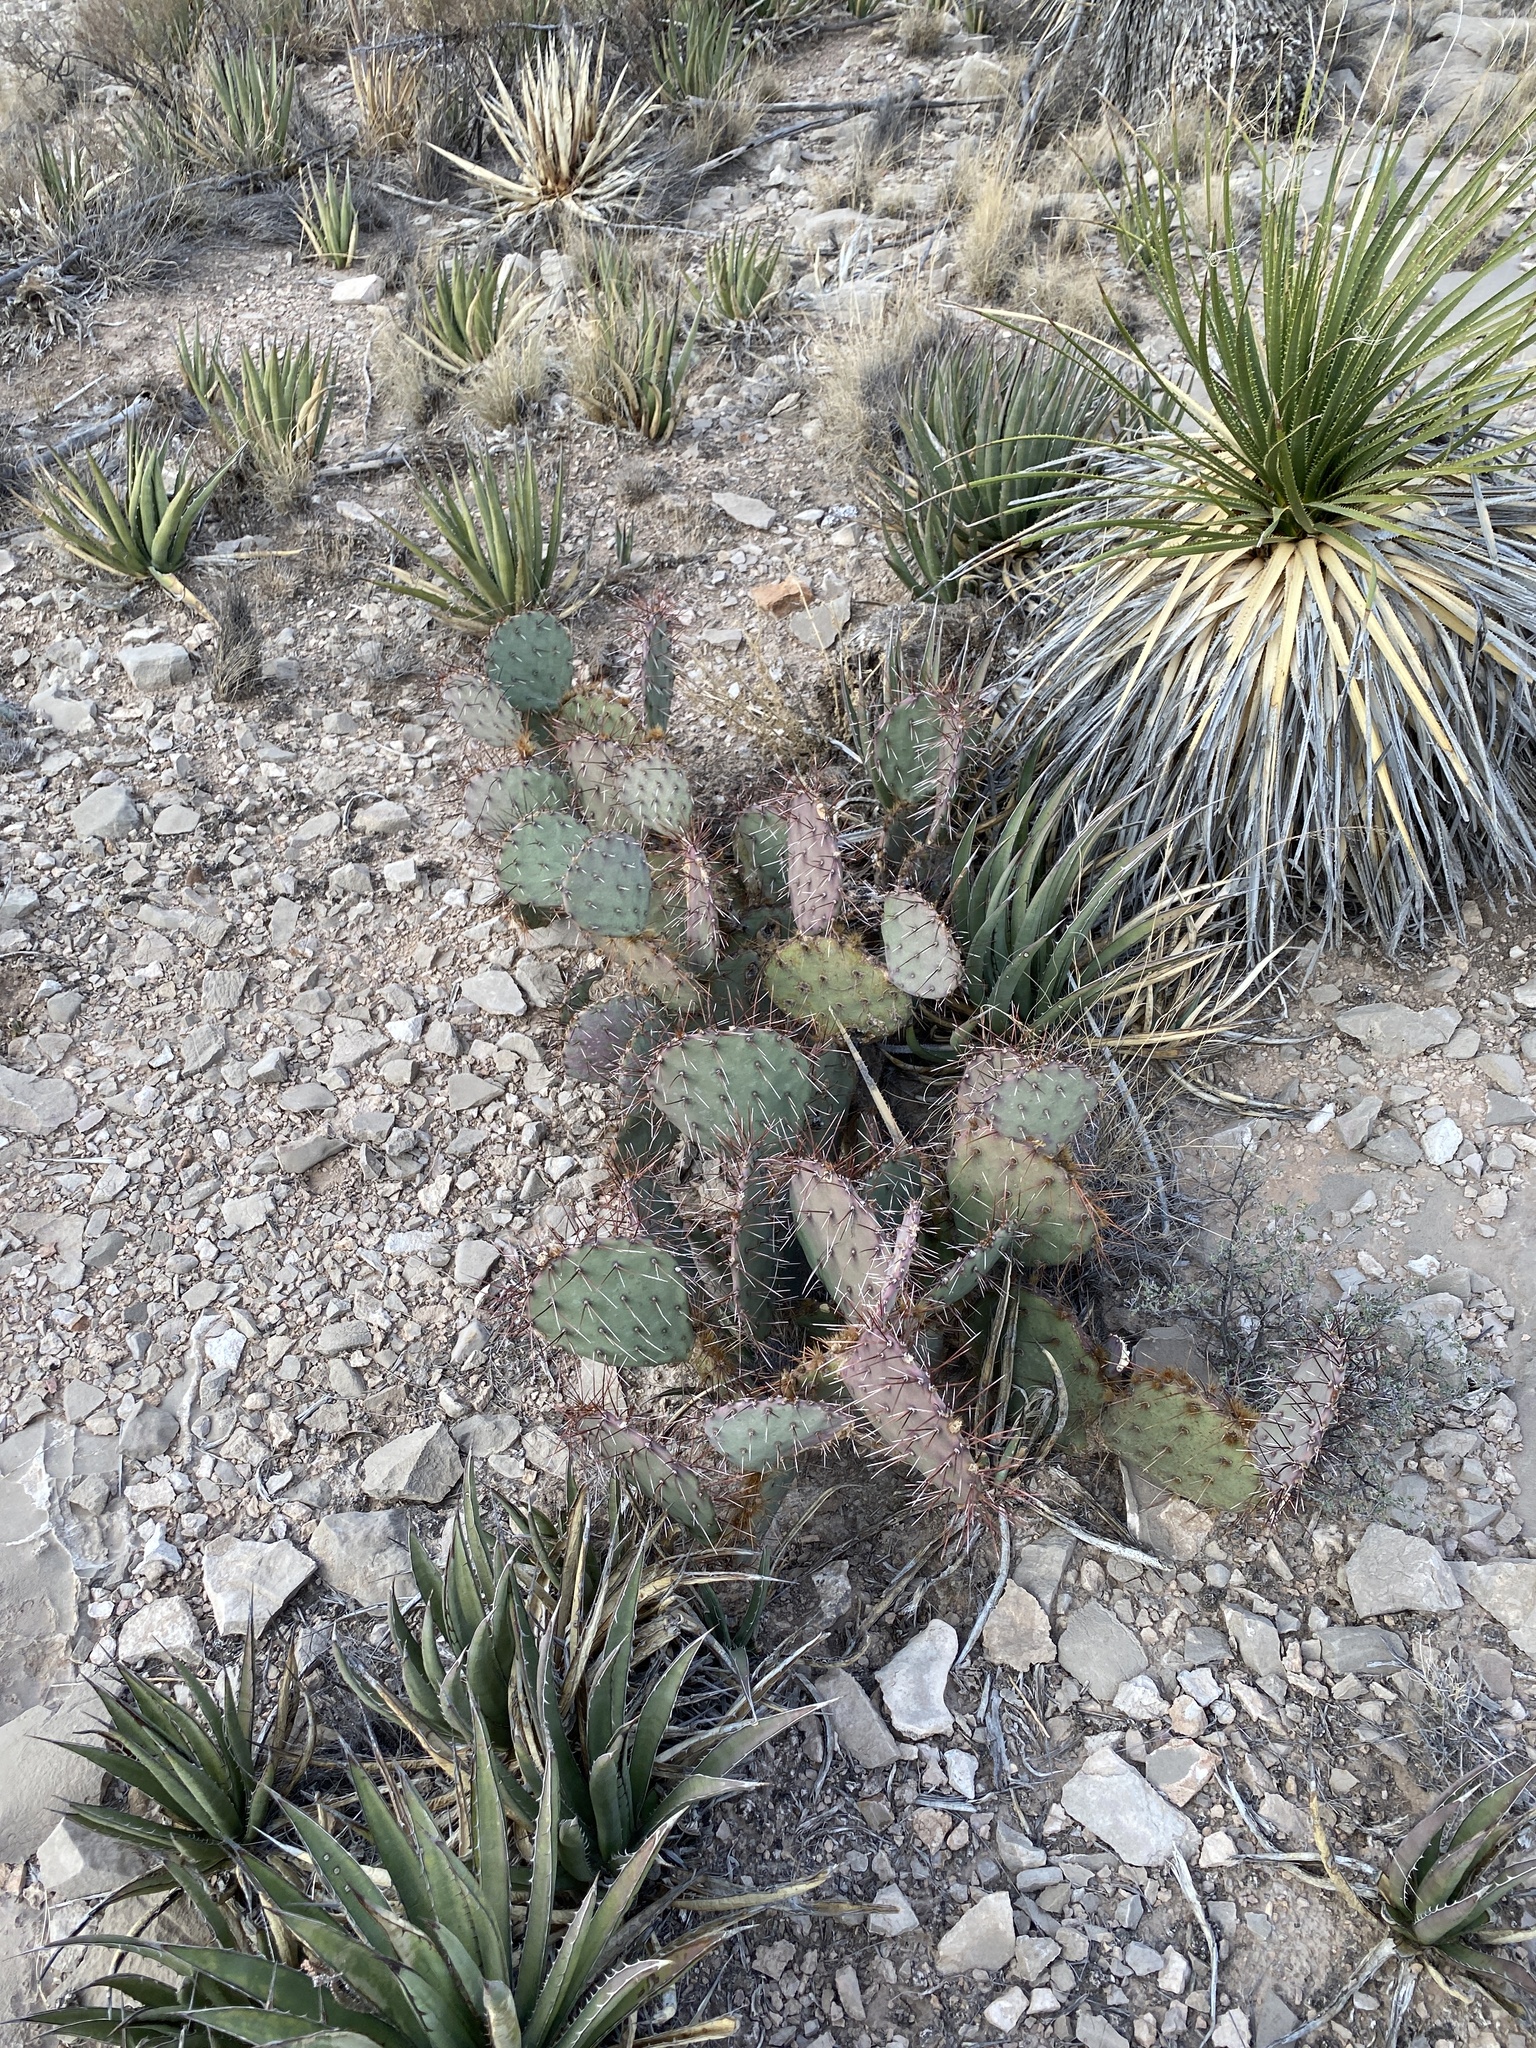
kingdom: Plantae
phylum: Tracheophyta
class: Magnoliopsida
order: Caryophyllales
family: Cactaceae
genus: Opuntia
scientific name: Opuntia macrocentra
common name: Purple prickly-pear
